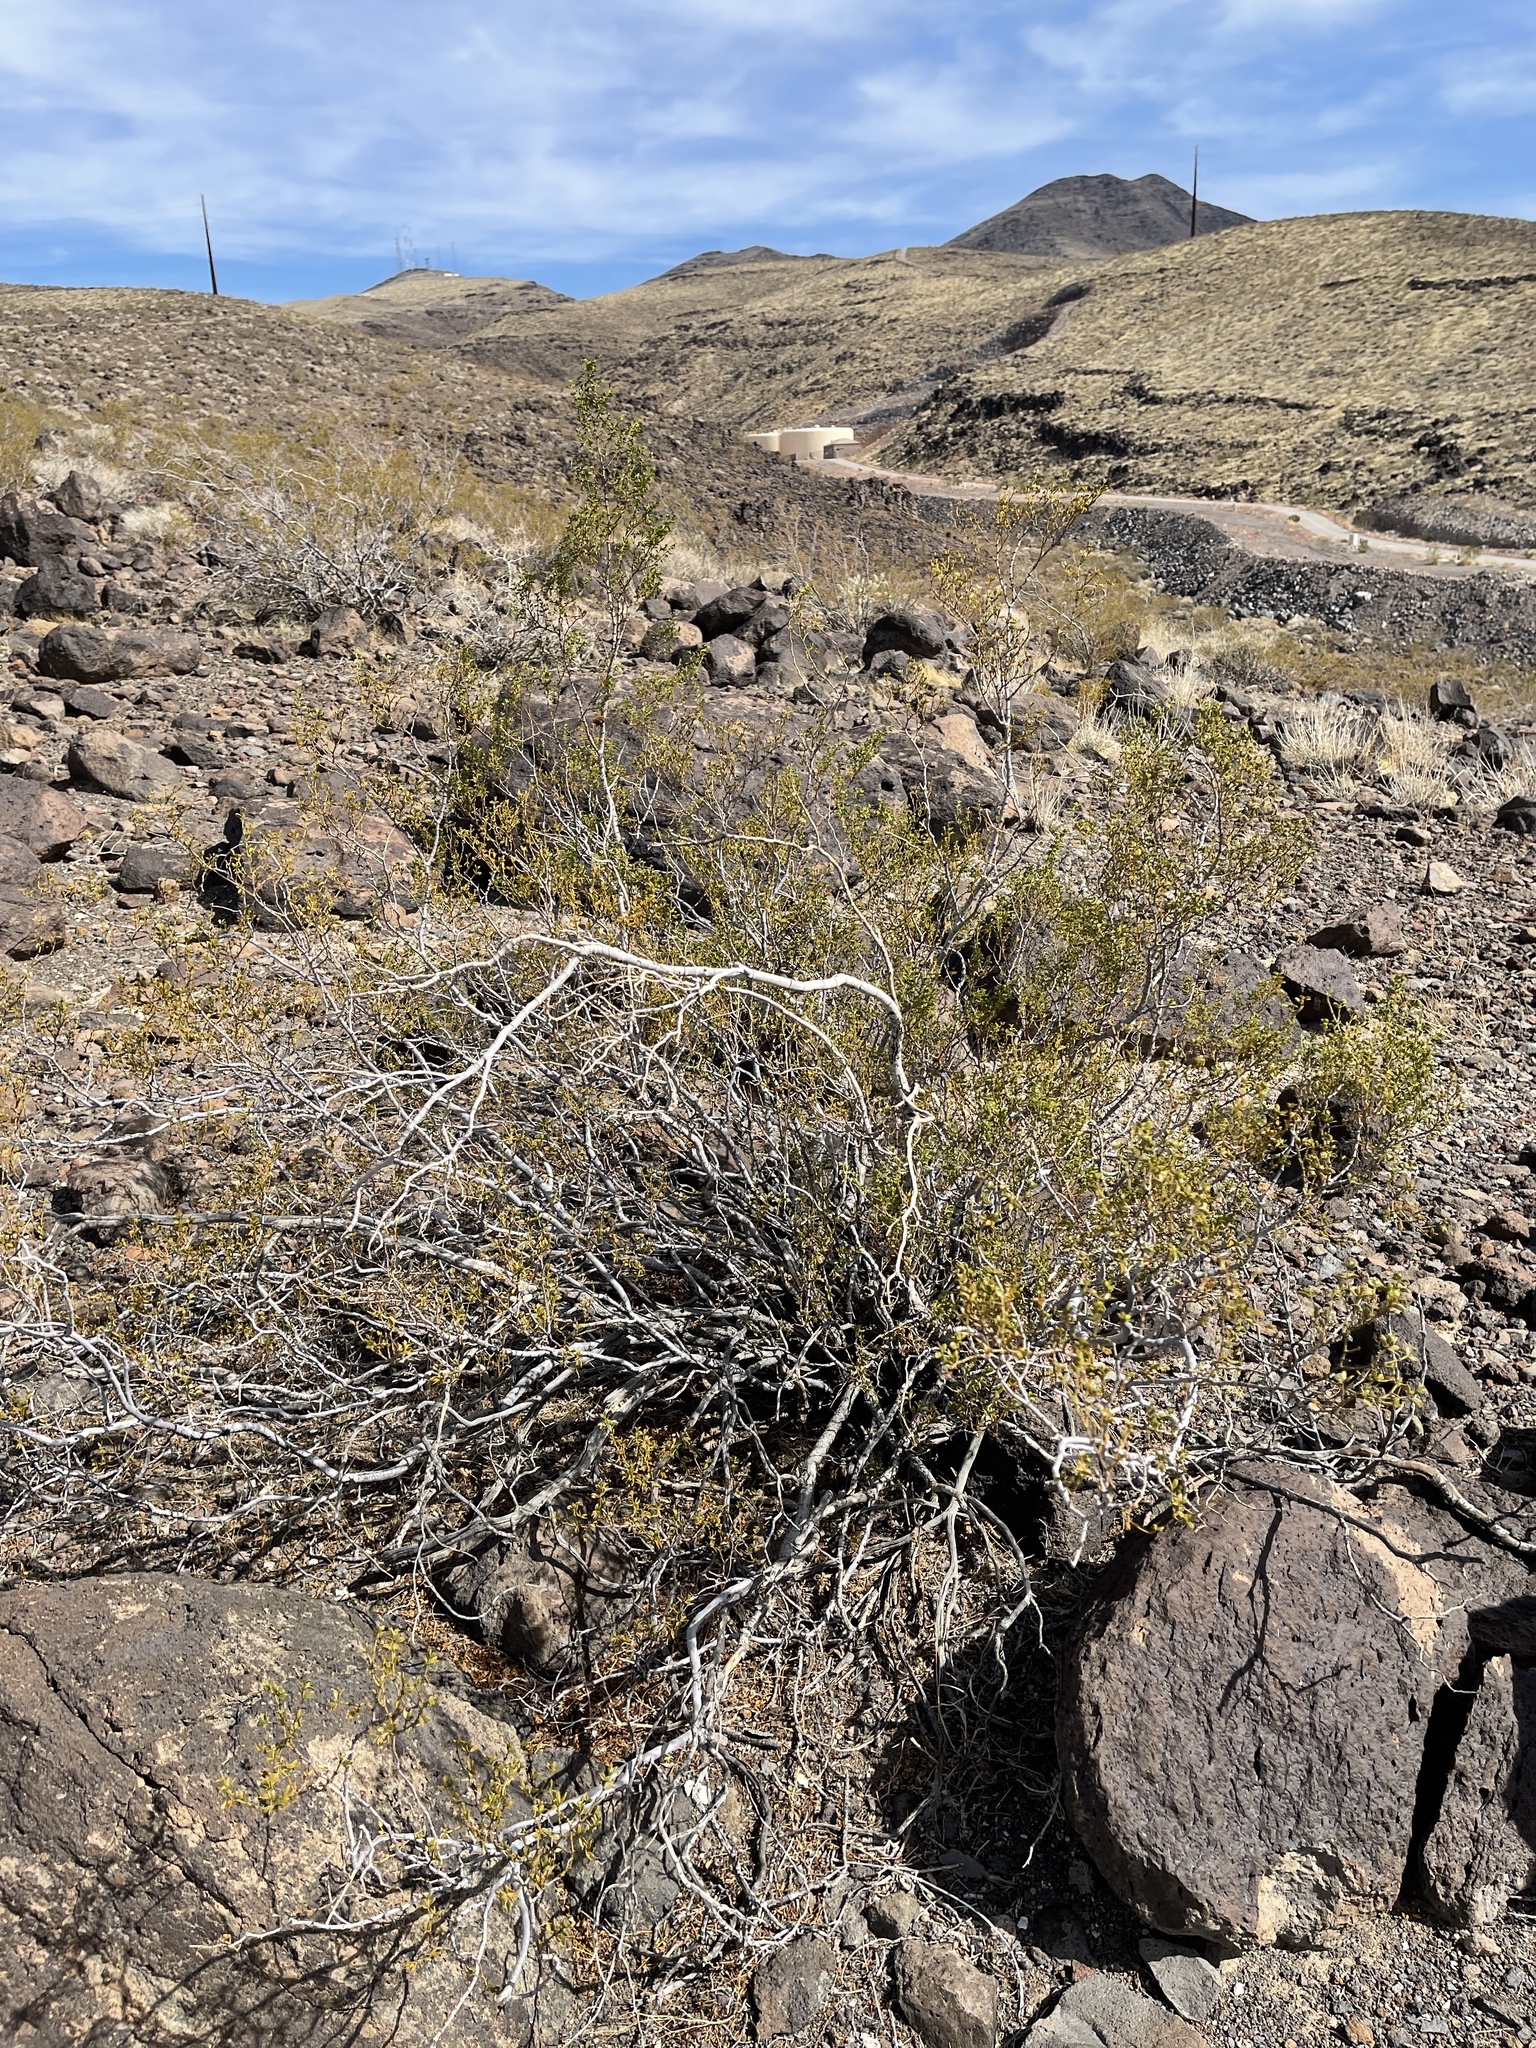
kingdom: Plantae
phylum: Tracheophyta
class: Magnoliopsida
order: Zygophyllales
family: Zygophyllaceae
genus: Larrea
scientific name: Larrea tridentata
